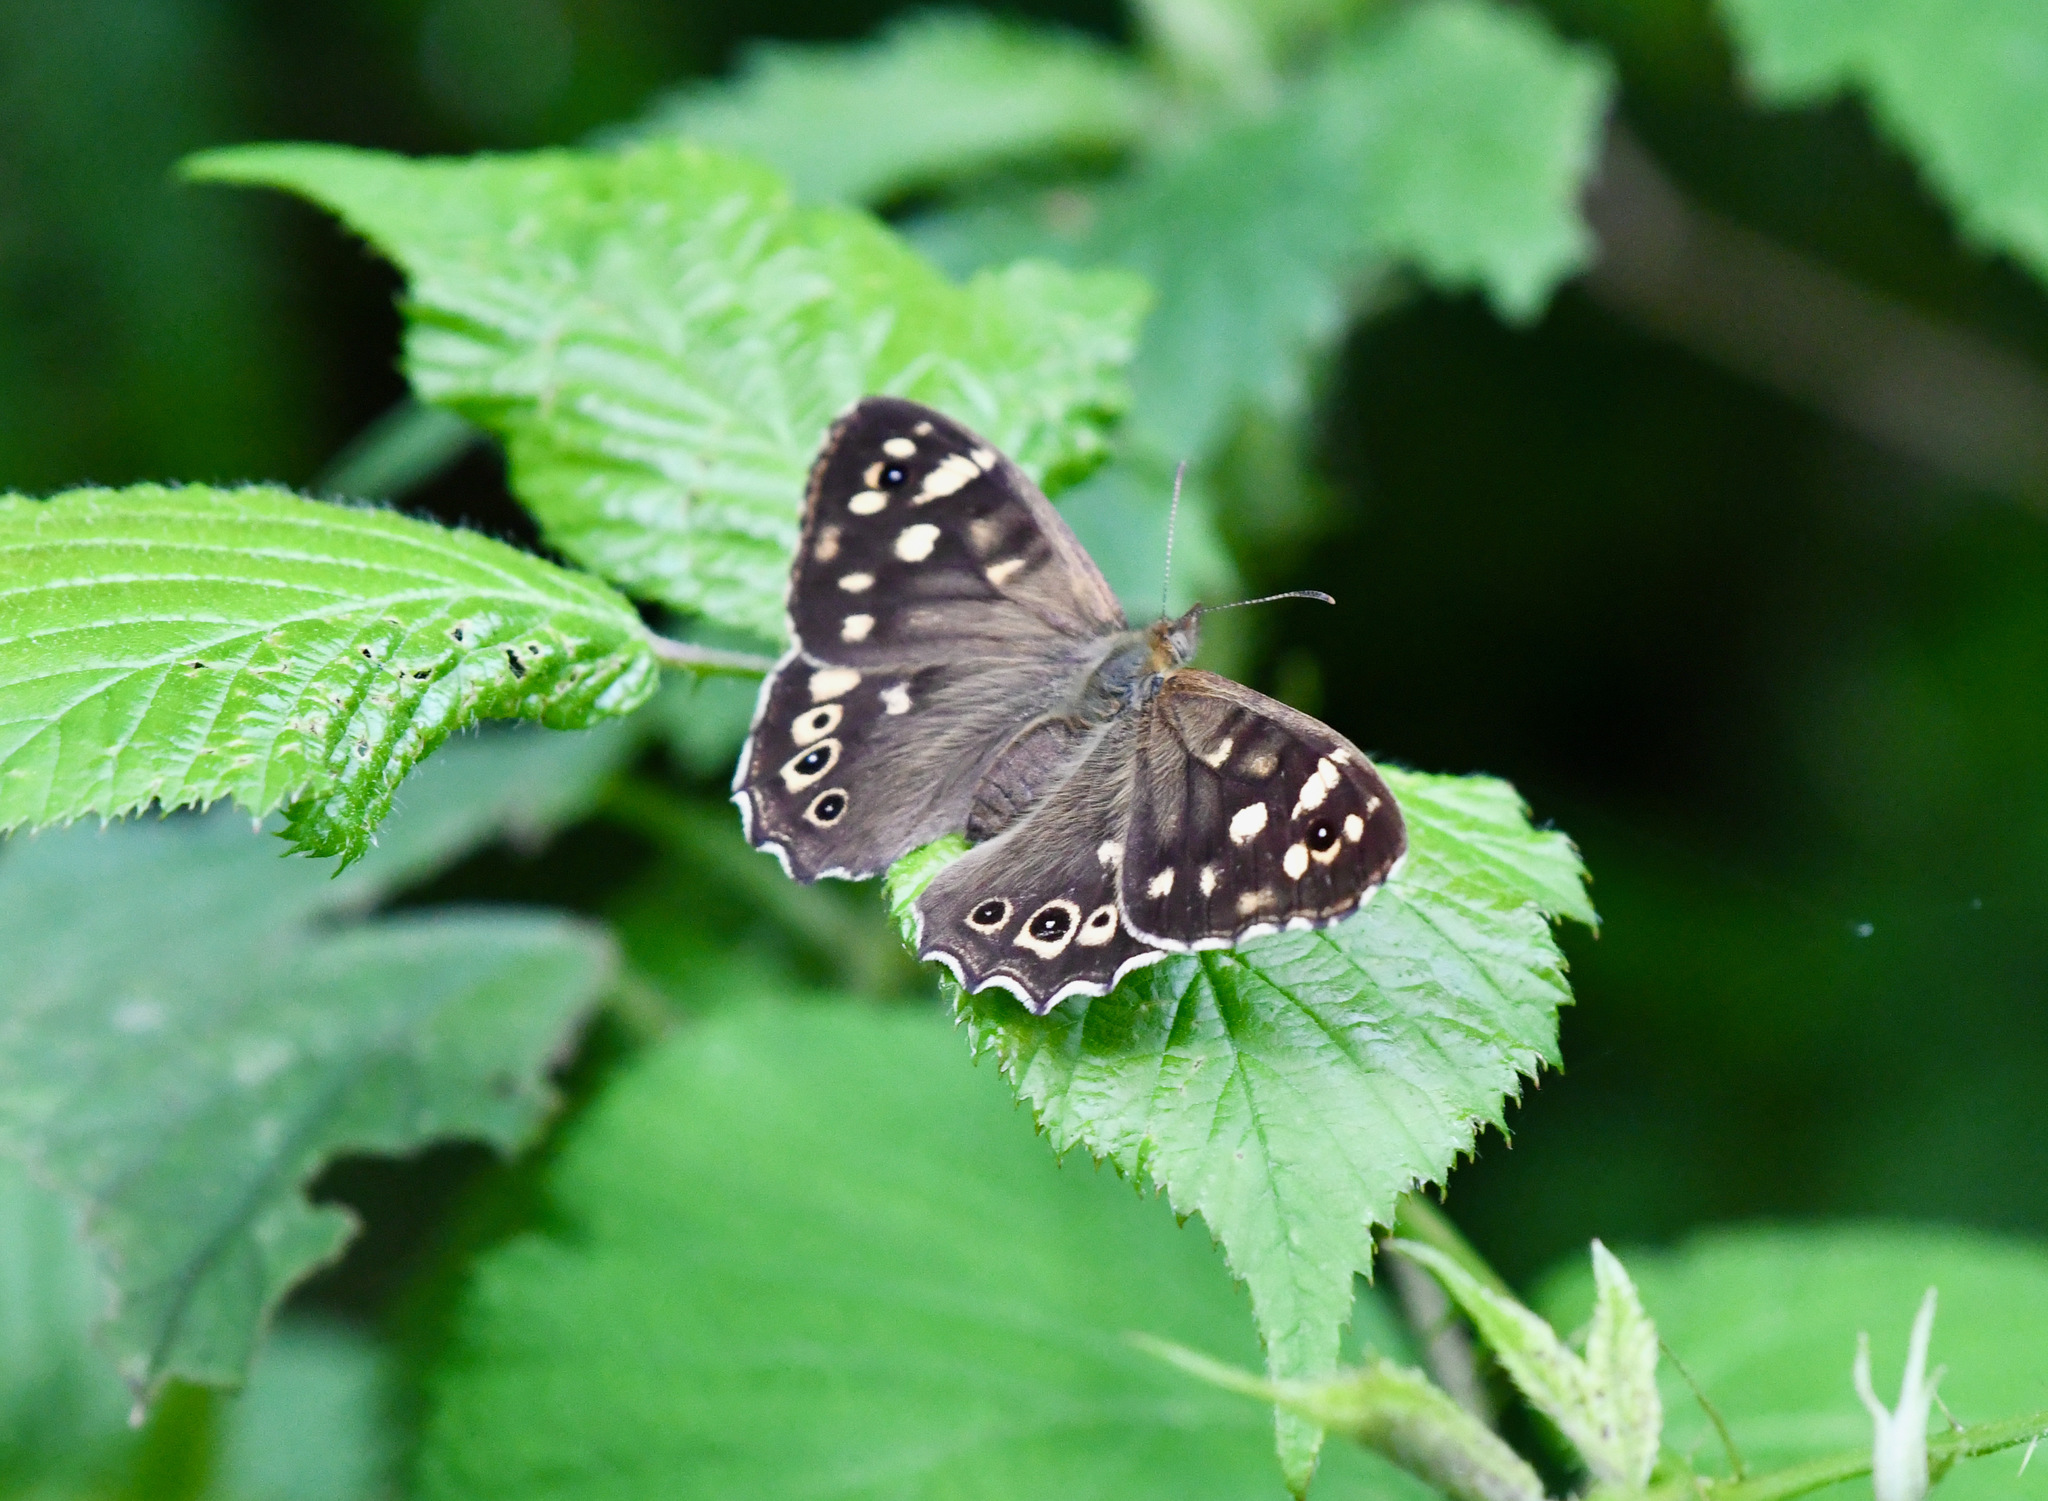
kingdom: Animalia
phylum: Arthropoda
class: Insecta
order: Lepidoptera
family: Nymphalidae
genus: Pararge
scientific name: Pararge aegeria
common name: Speckled wood
